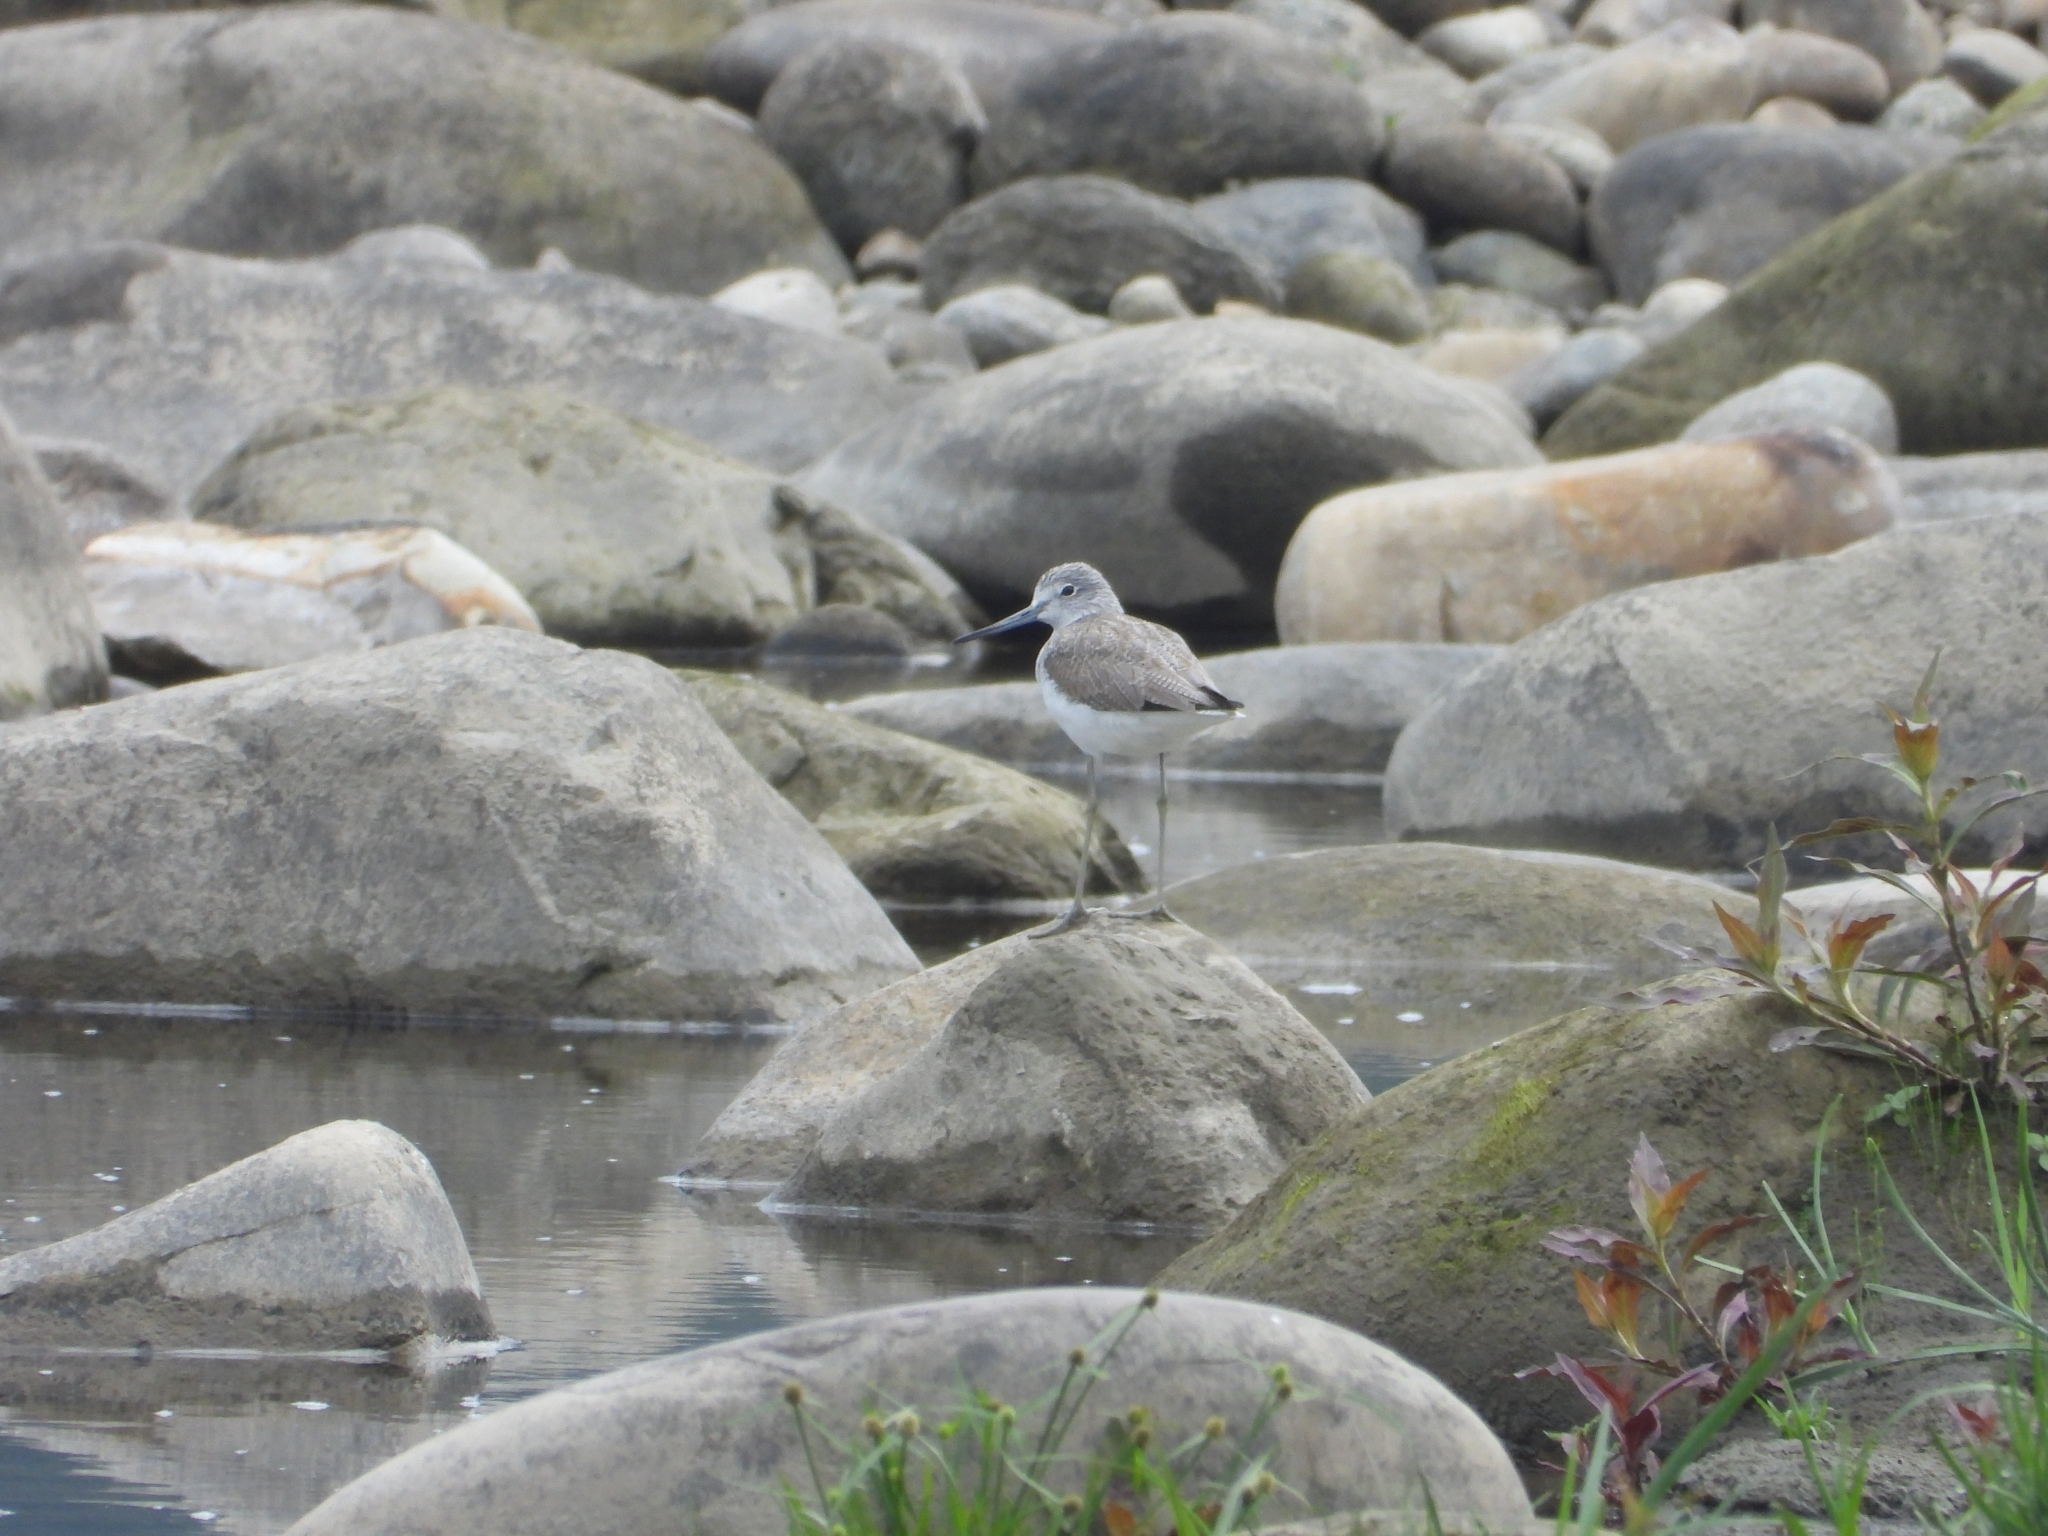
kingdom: Animalia
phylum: Chordata
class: Aves
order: Charadriiformes
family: Scolopacidae
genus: Tringa
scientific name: Tringa nebularia
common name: Common greenshank
